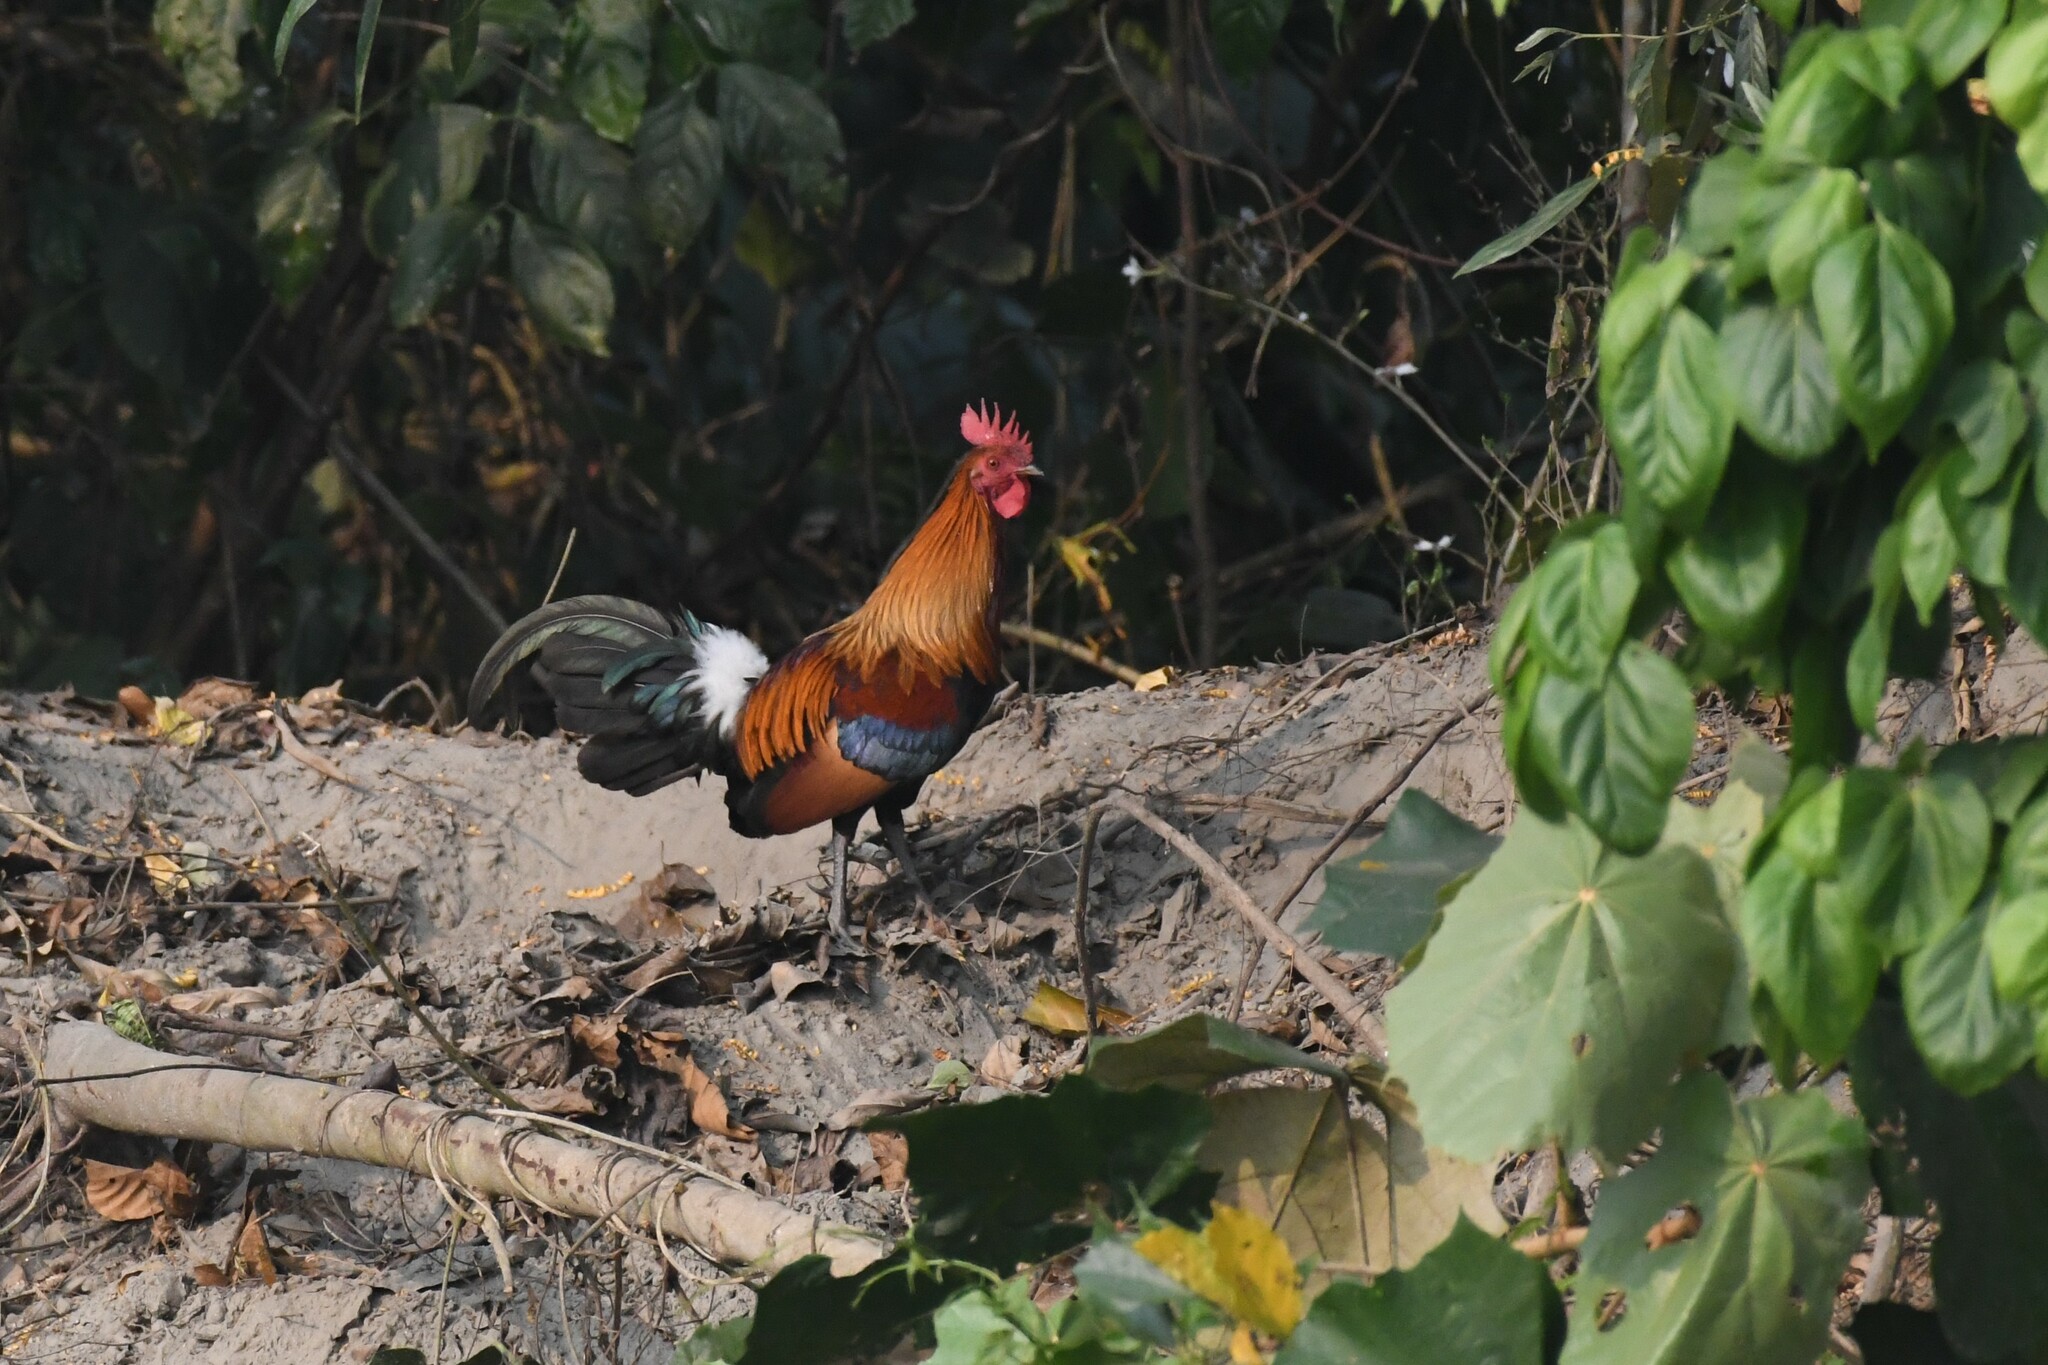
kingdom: Animalia
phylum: Chordata
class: Aves
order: Galliformes
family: Phasianidae
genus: Gallus
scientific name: Gallus gallus
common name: Red junglefowl
